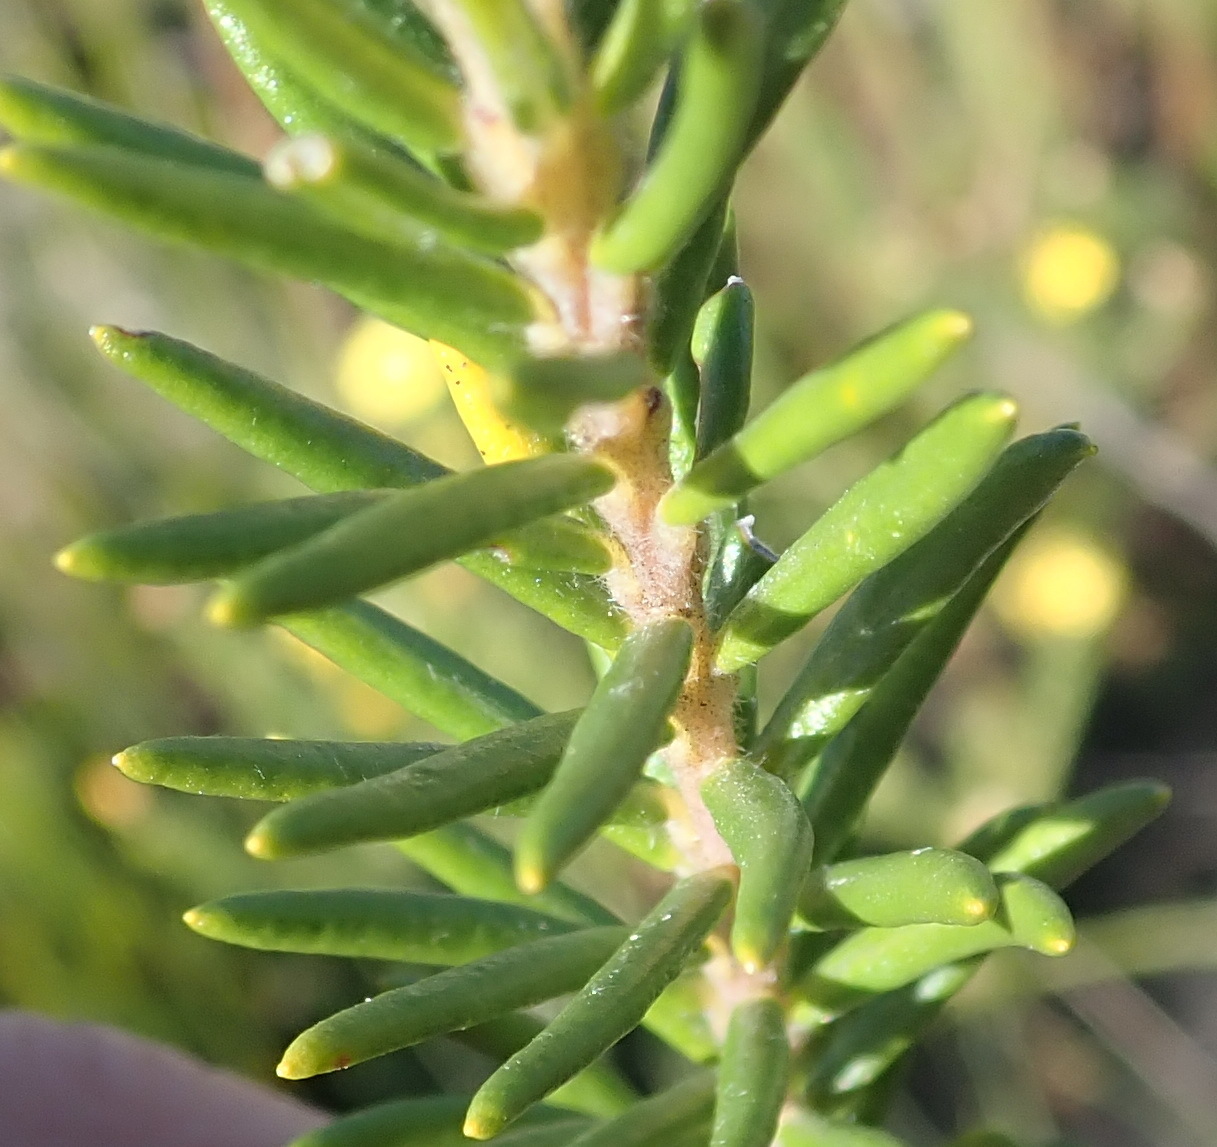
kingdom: Plantae
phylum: Tracheophyta
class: Magnoliopsida
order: Rosales
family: Rhamnaceae
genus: Phylica
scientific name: Phylica imberbis
